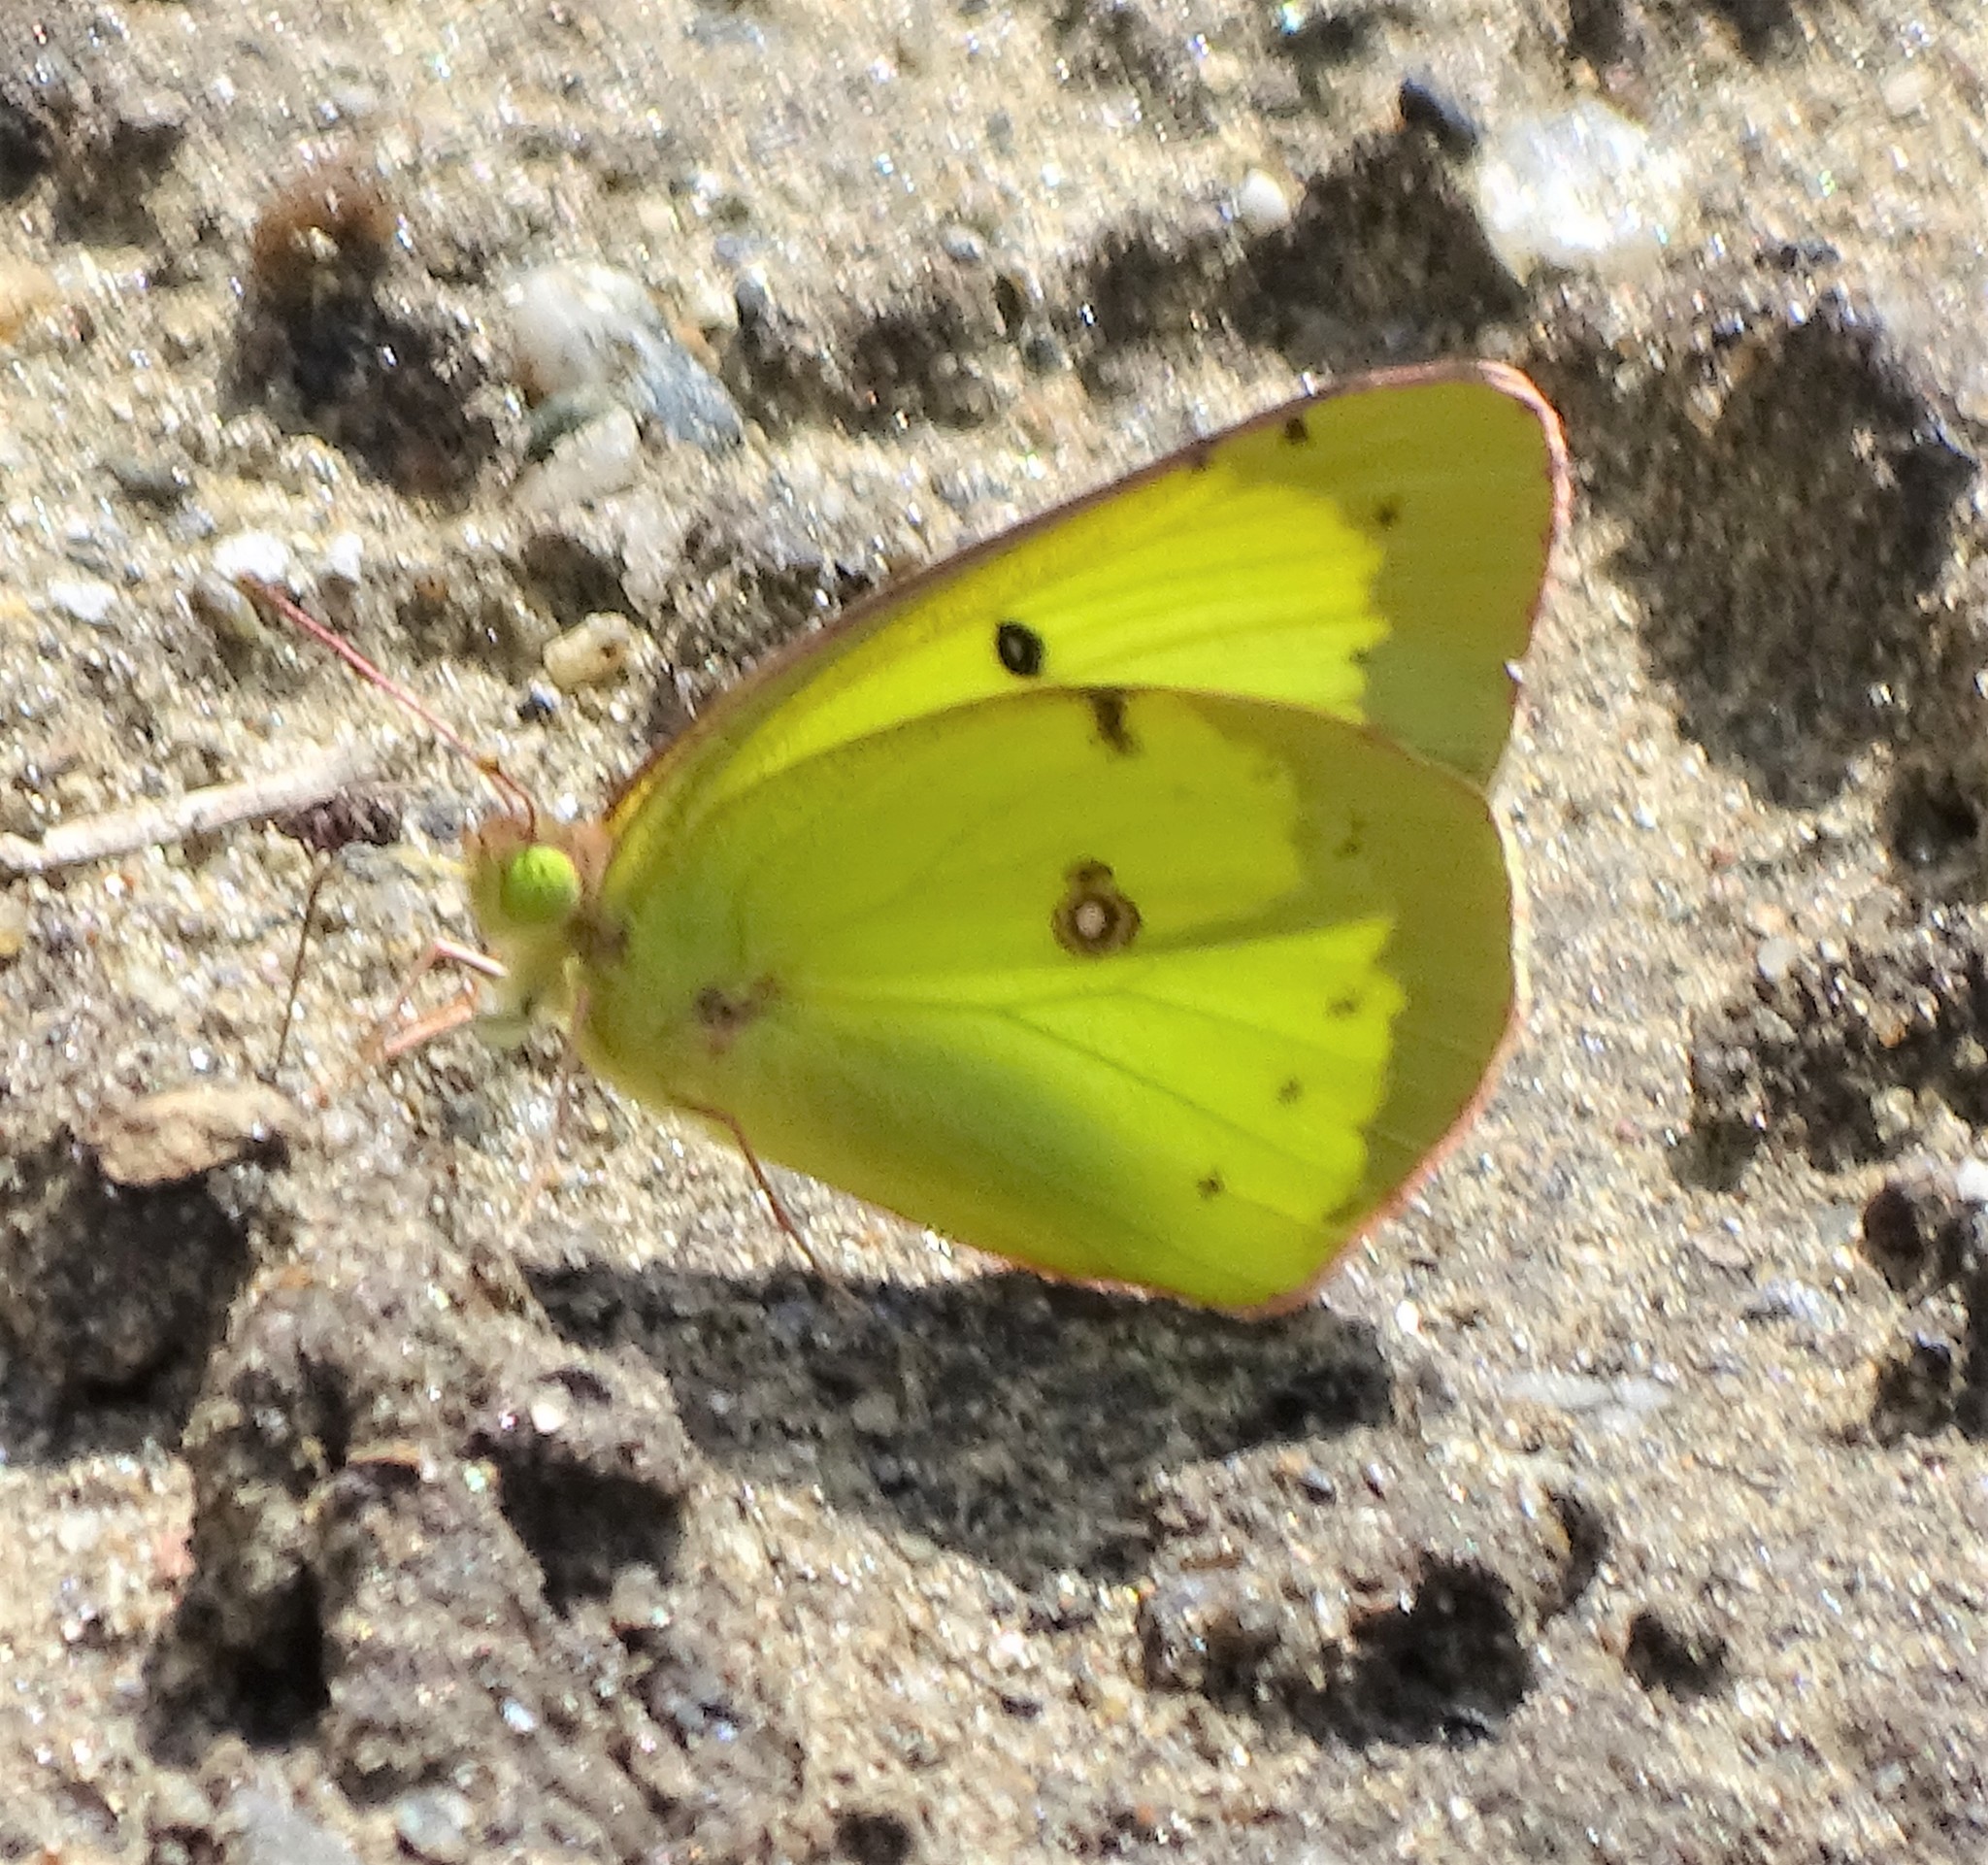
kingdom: Animalia
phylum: Arthropoda
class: Insecta
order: Lepidoptera
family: Pieridae
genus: Colias
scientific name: Colias philodice
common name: Clouded sulphur
